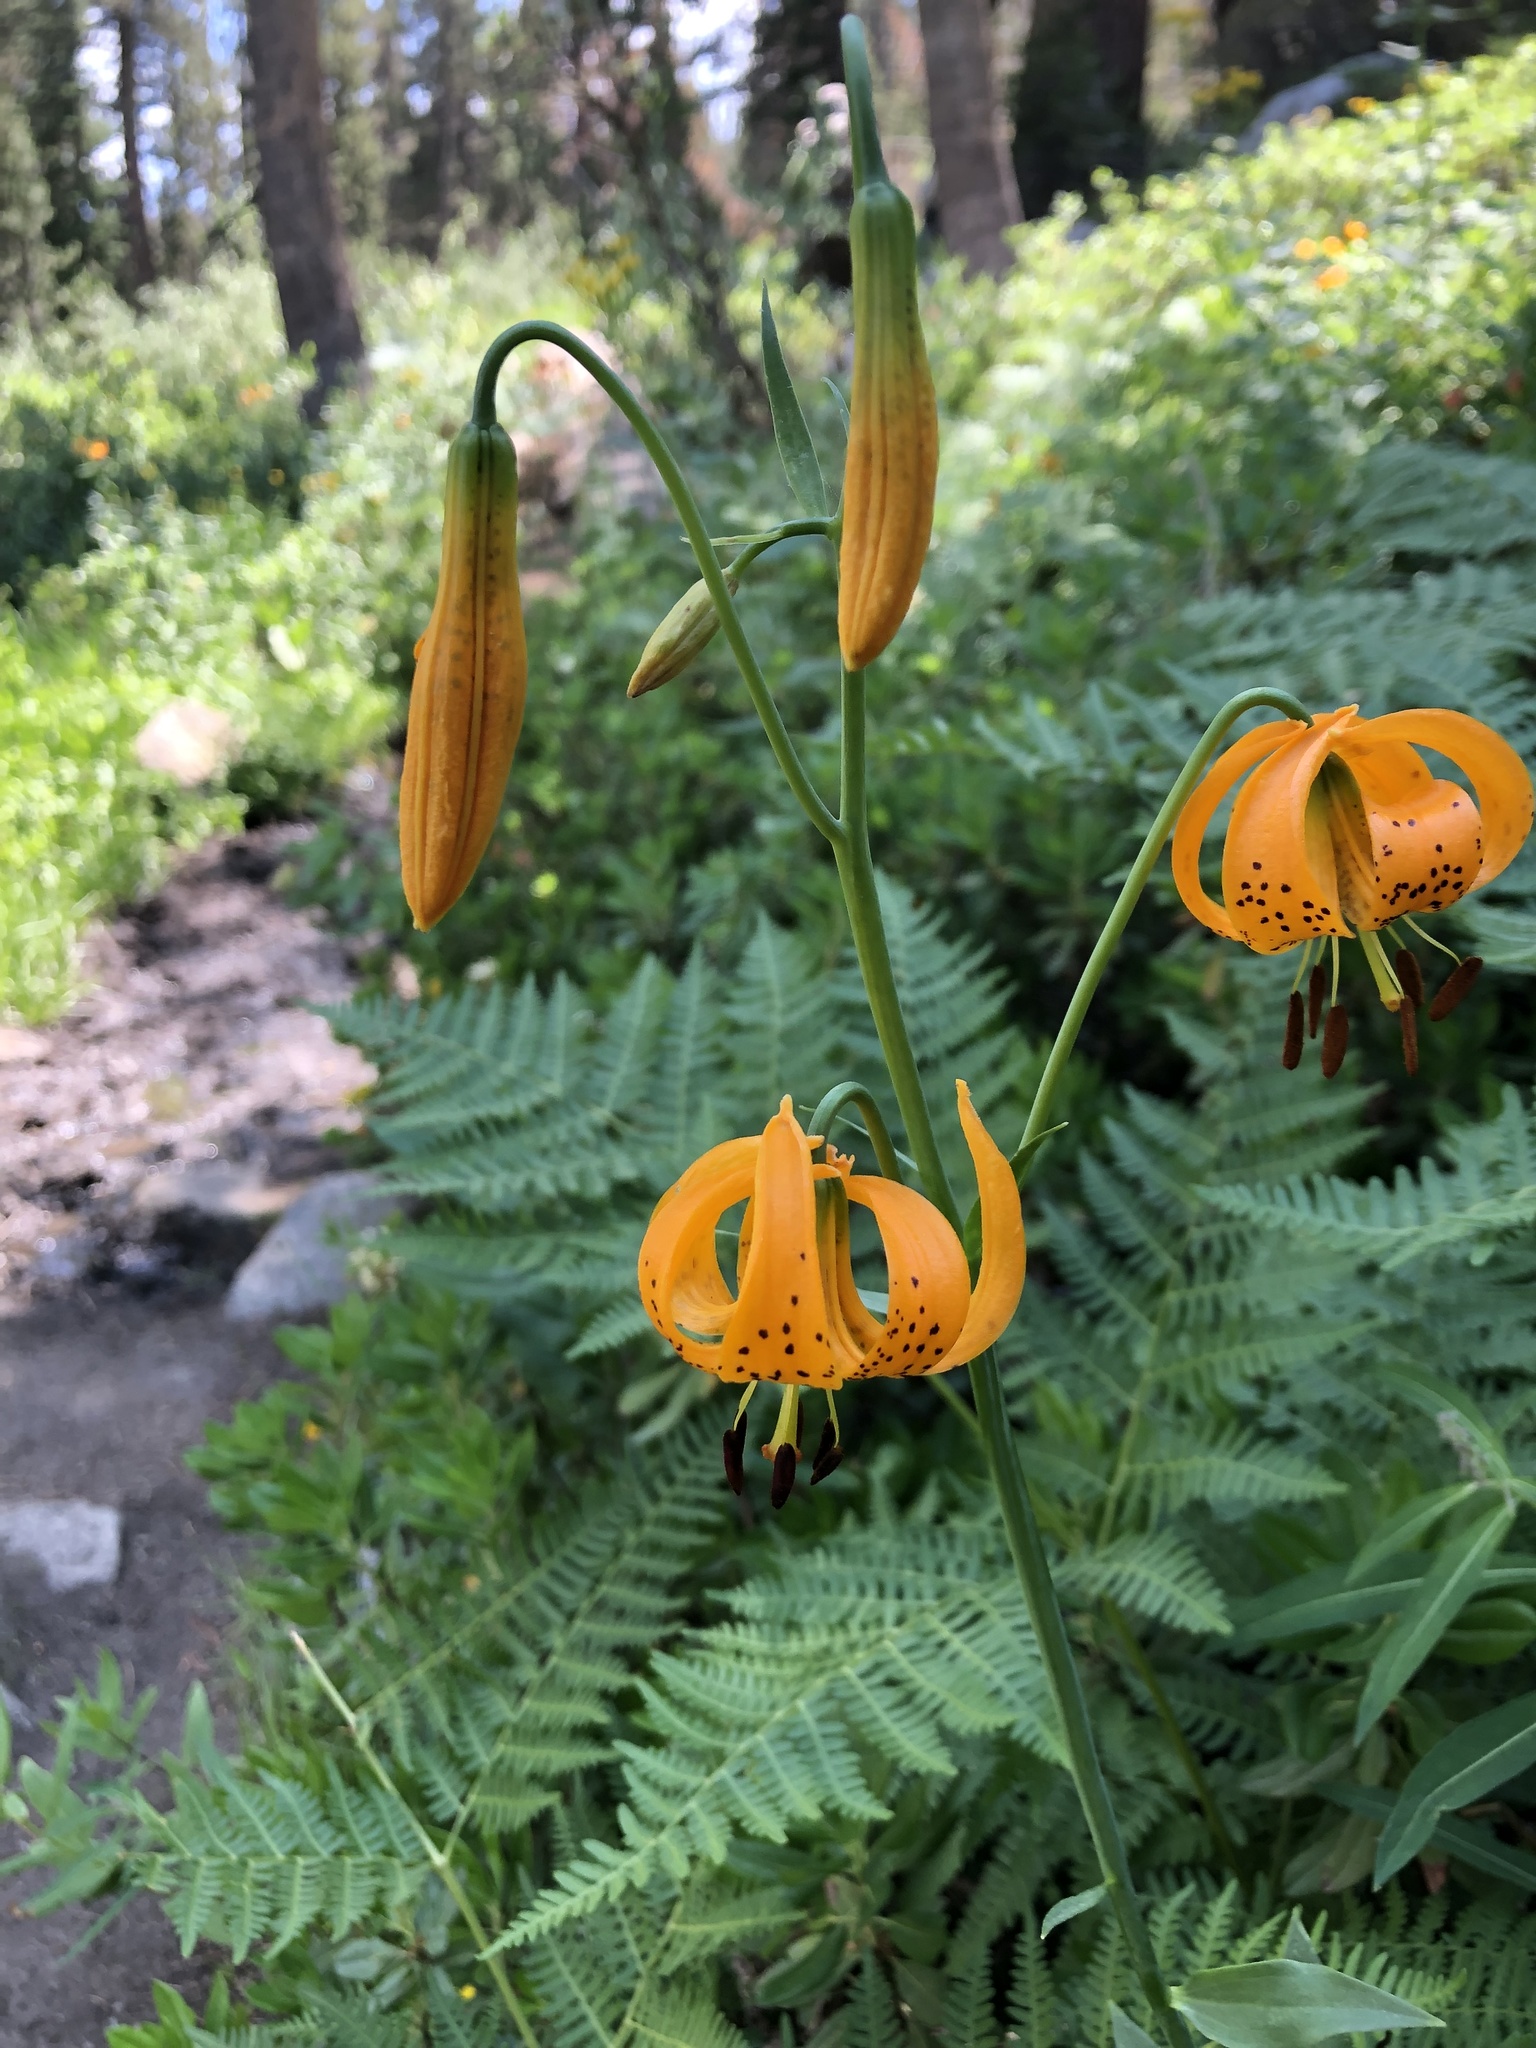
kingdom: Plantae
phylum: Tracheophyta
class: Liliopsida
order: Liliales
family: Liliaceae
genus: Lilium
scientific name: Lilium kelleyanum
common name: Kelley's lily
